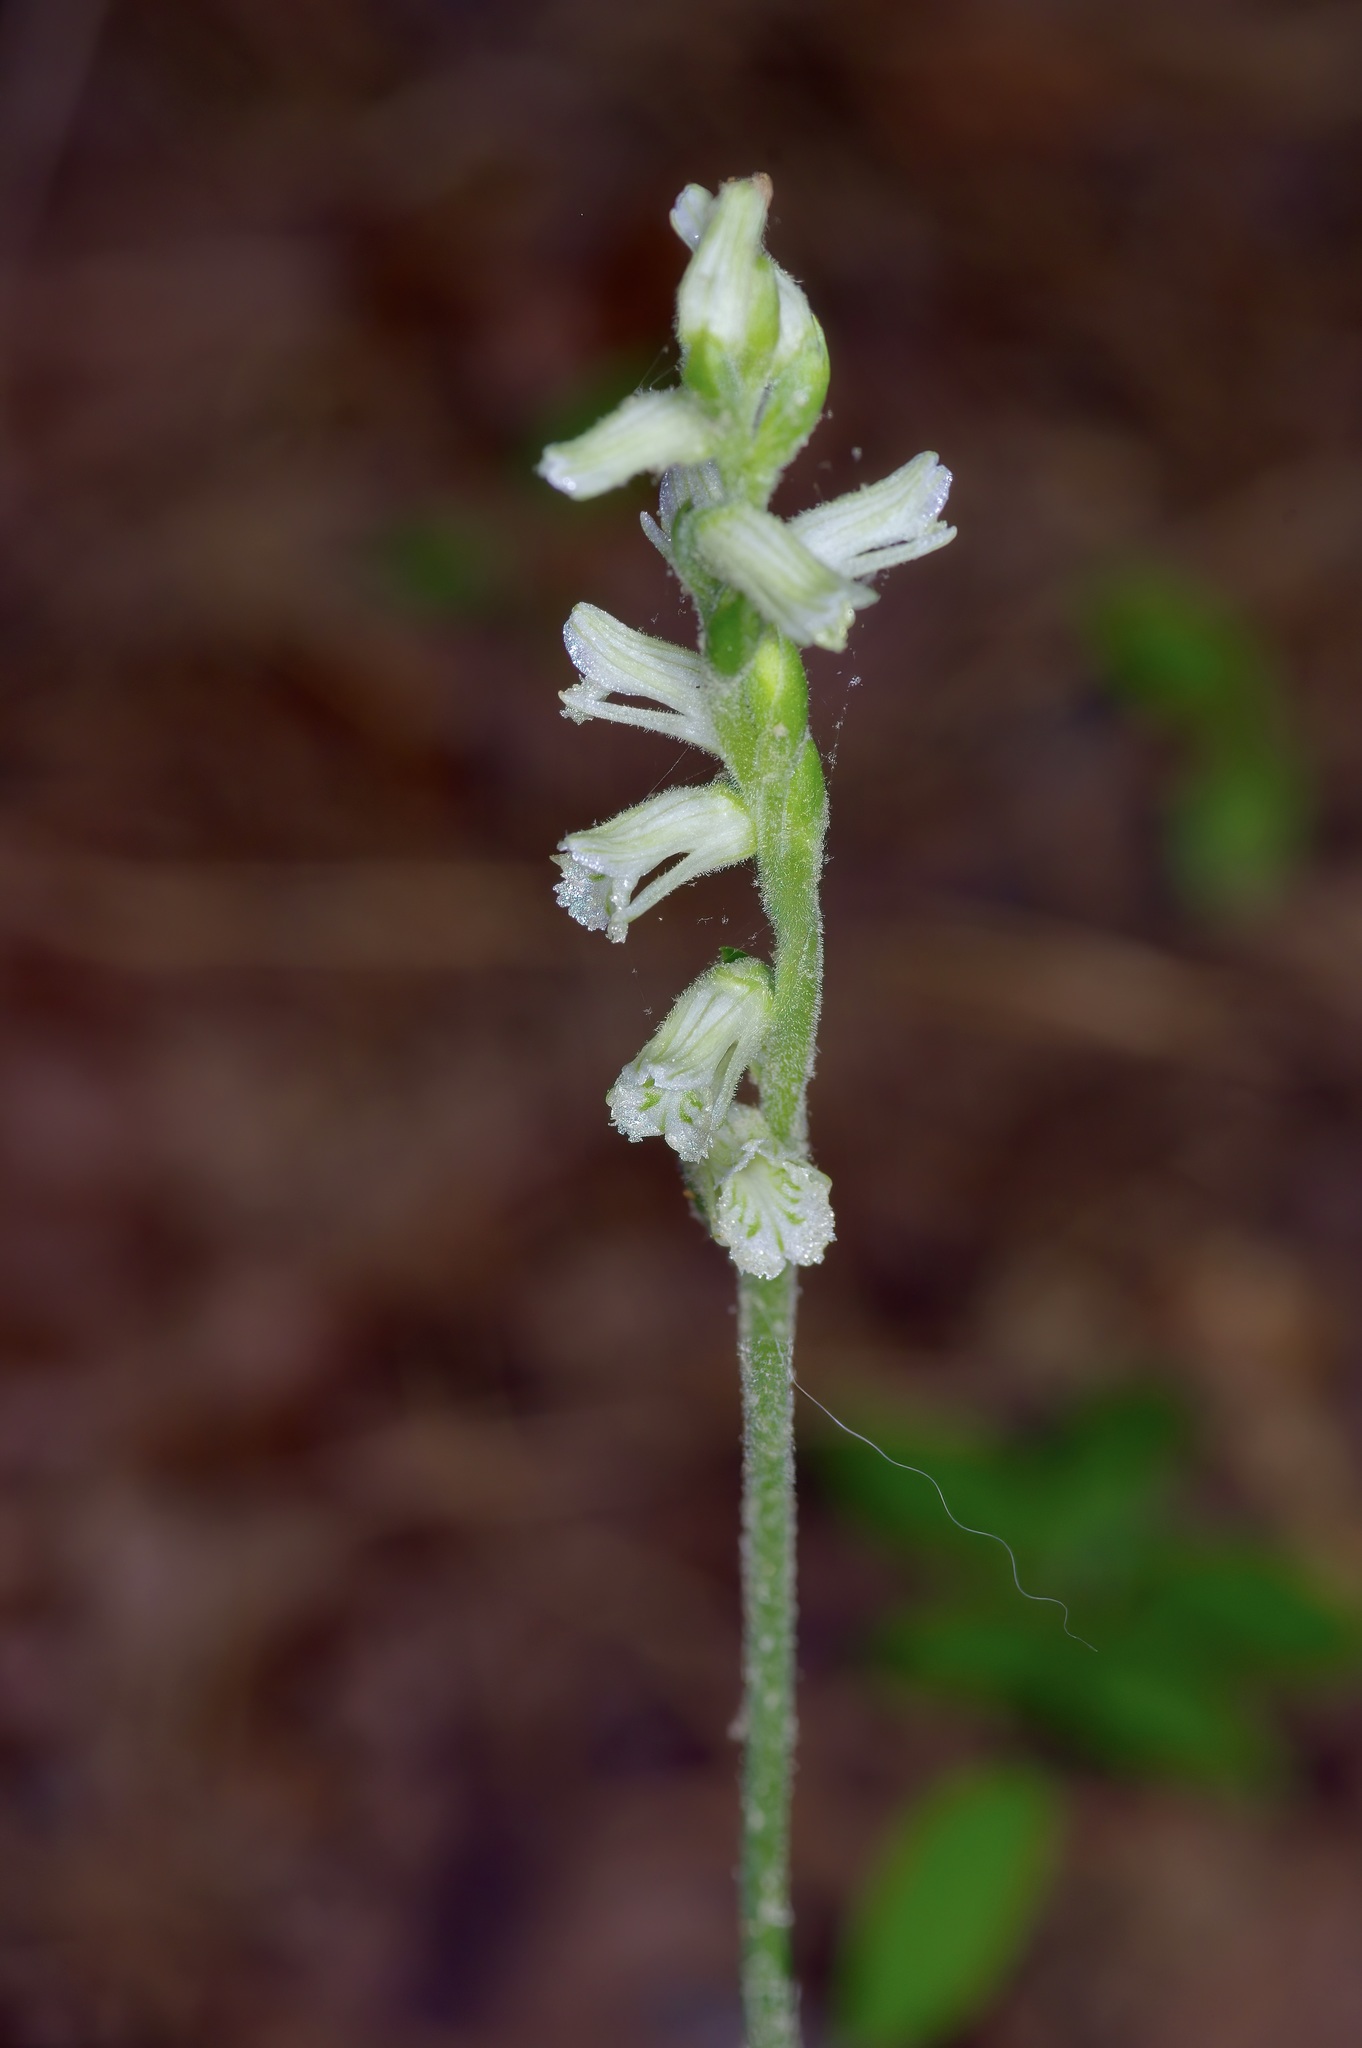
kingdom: Plantae
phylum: Tracheophyta
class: Liliopsida
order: Asparagales
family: Orchidaceae
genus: Spiranthes
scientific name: Spiranthes praecox
